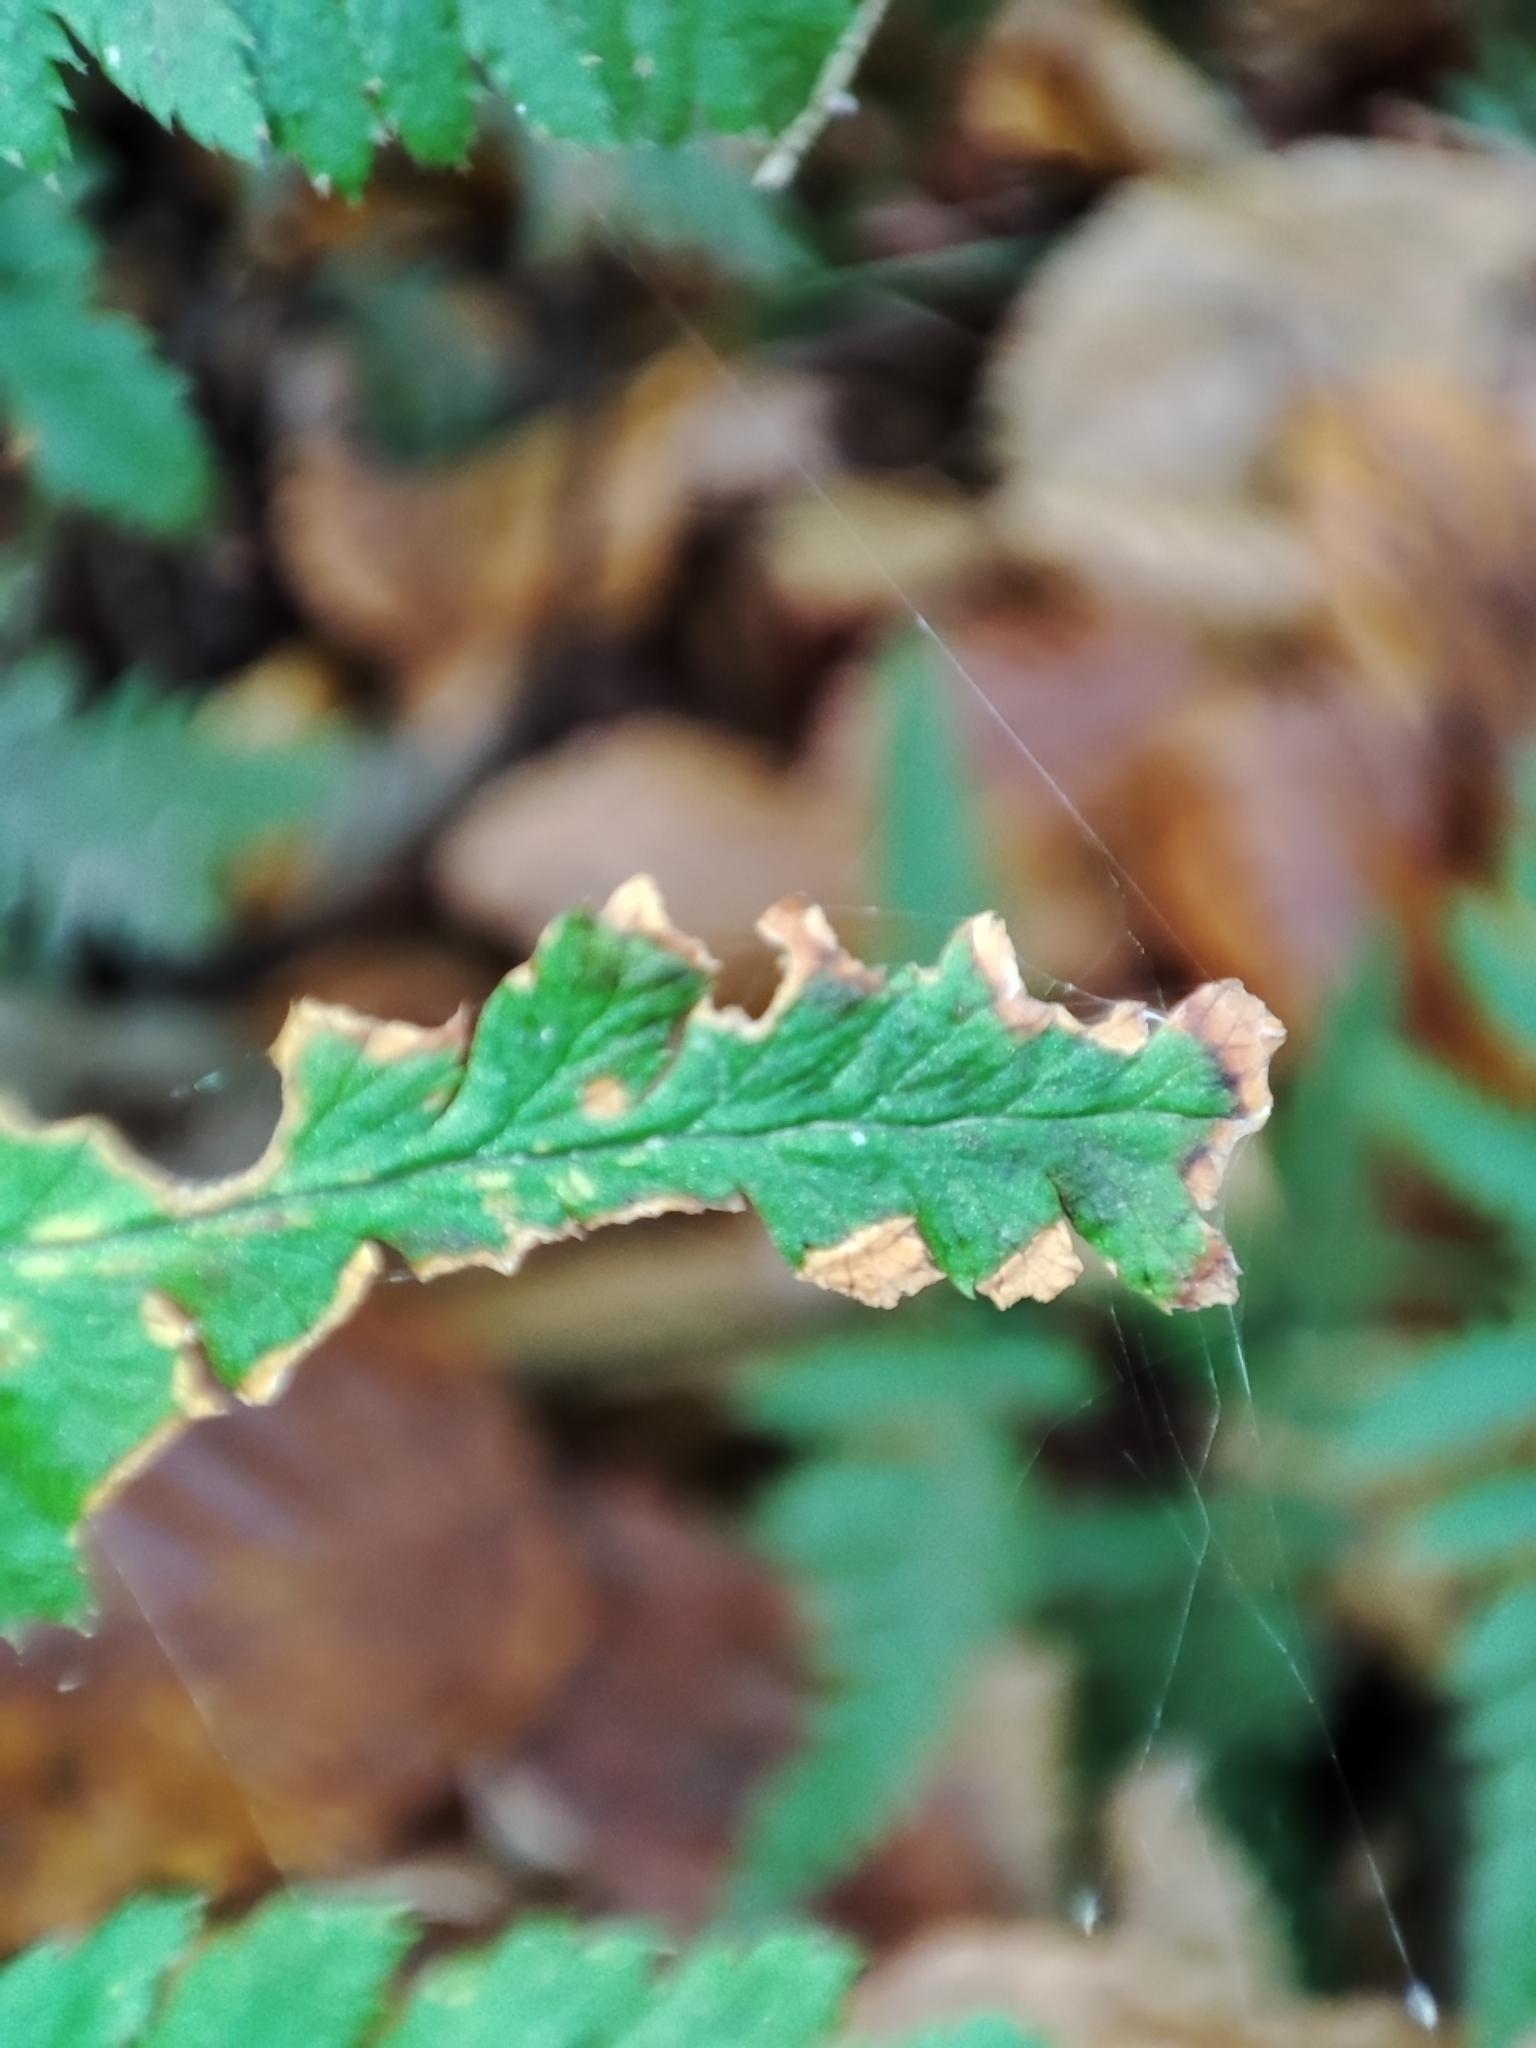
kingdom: Plantae
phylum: Tracheophyta
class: Polypodiopsida
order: Polypodiales
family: Dryopteridaceae
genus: Dryopteris
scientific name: Dryopteris carthusiana
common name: Narrow buckler-fern
